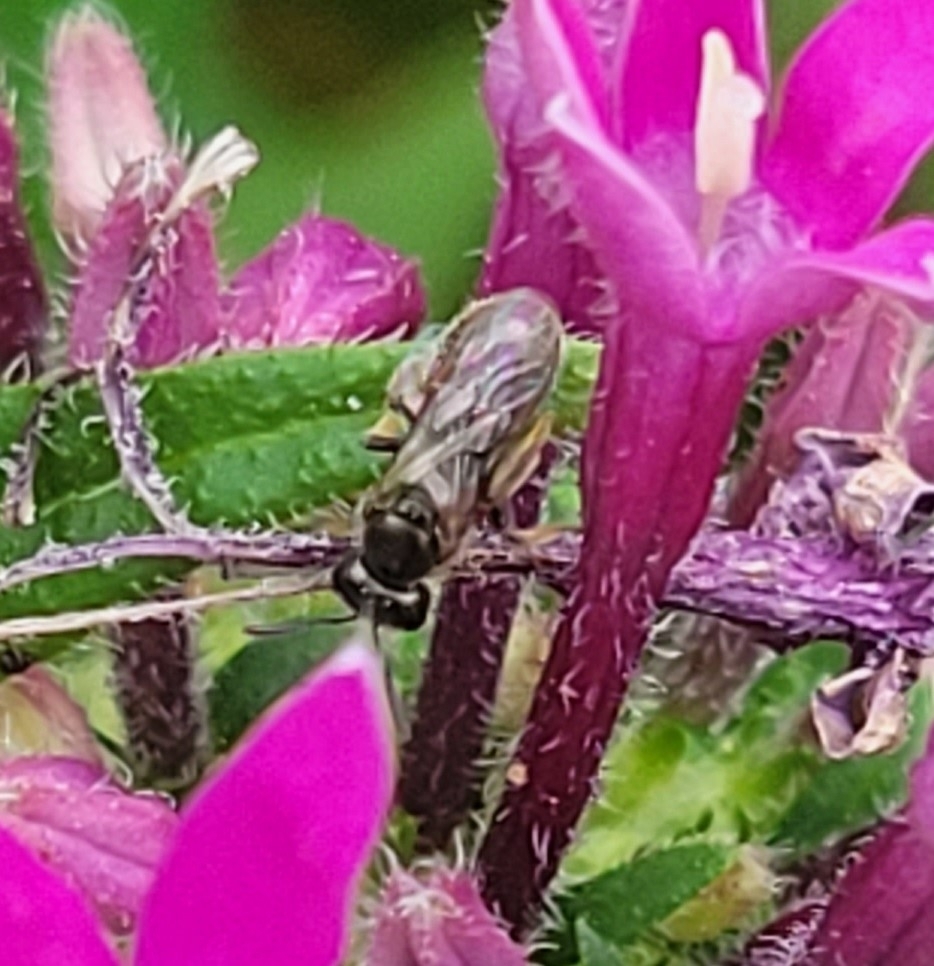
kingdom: Animalia
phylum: Arthropoda
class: Insecta
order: Hymenoptera
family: Halictidae
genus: Dialictus
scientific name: Dialictus
